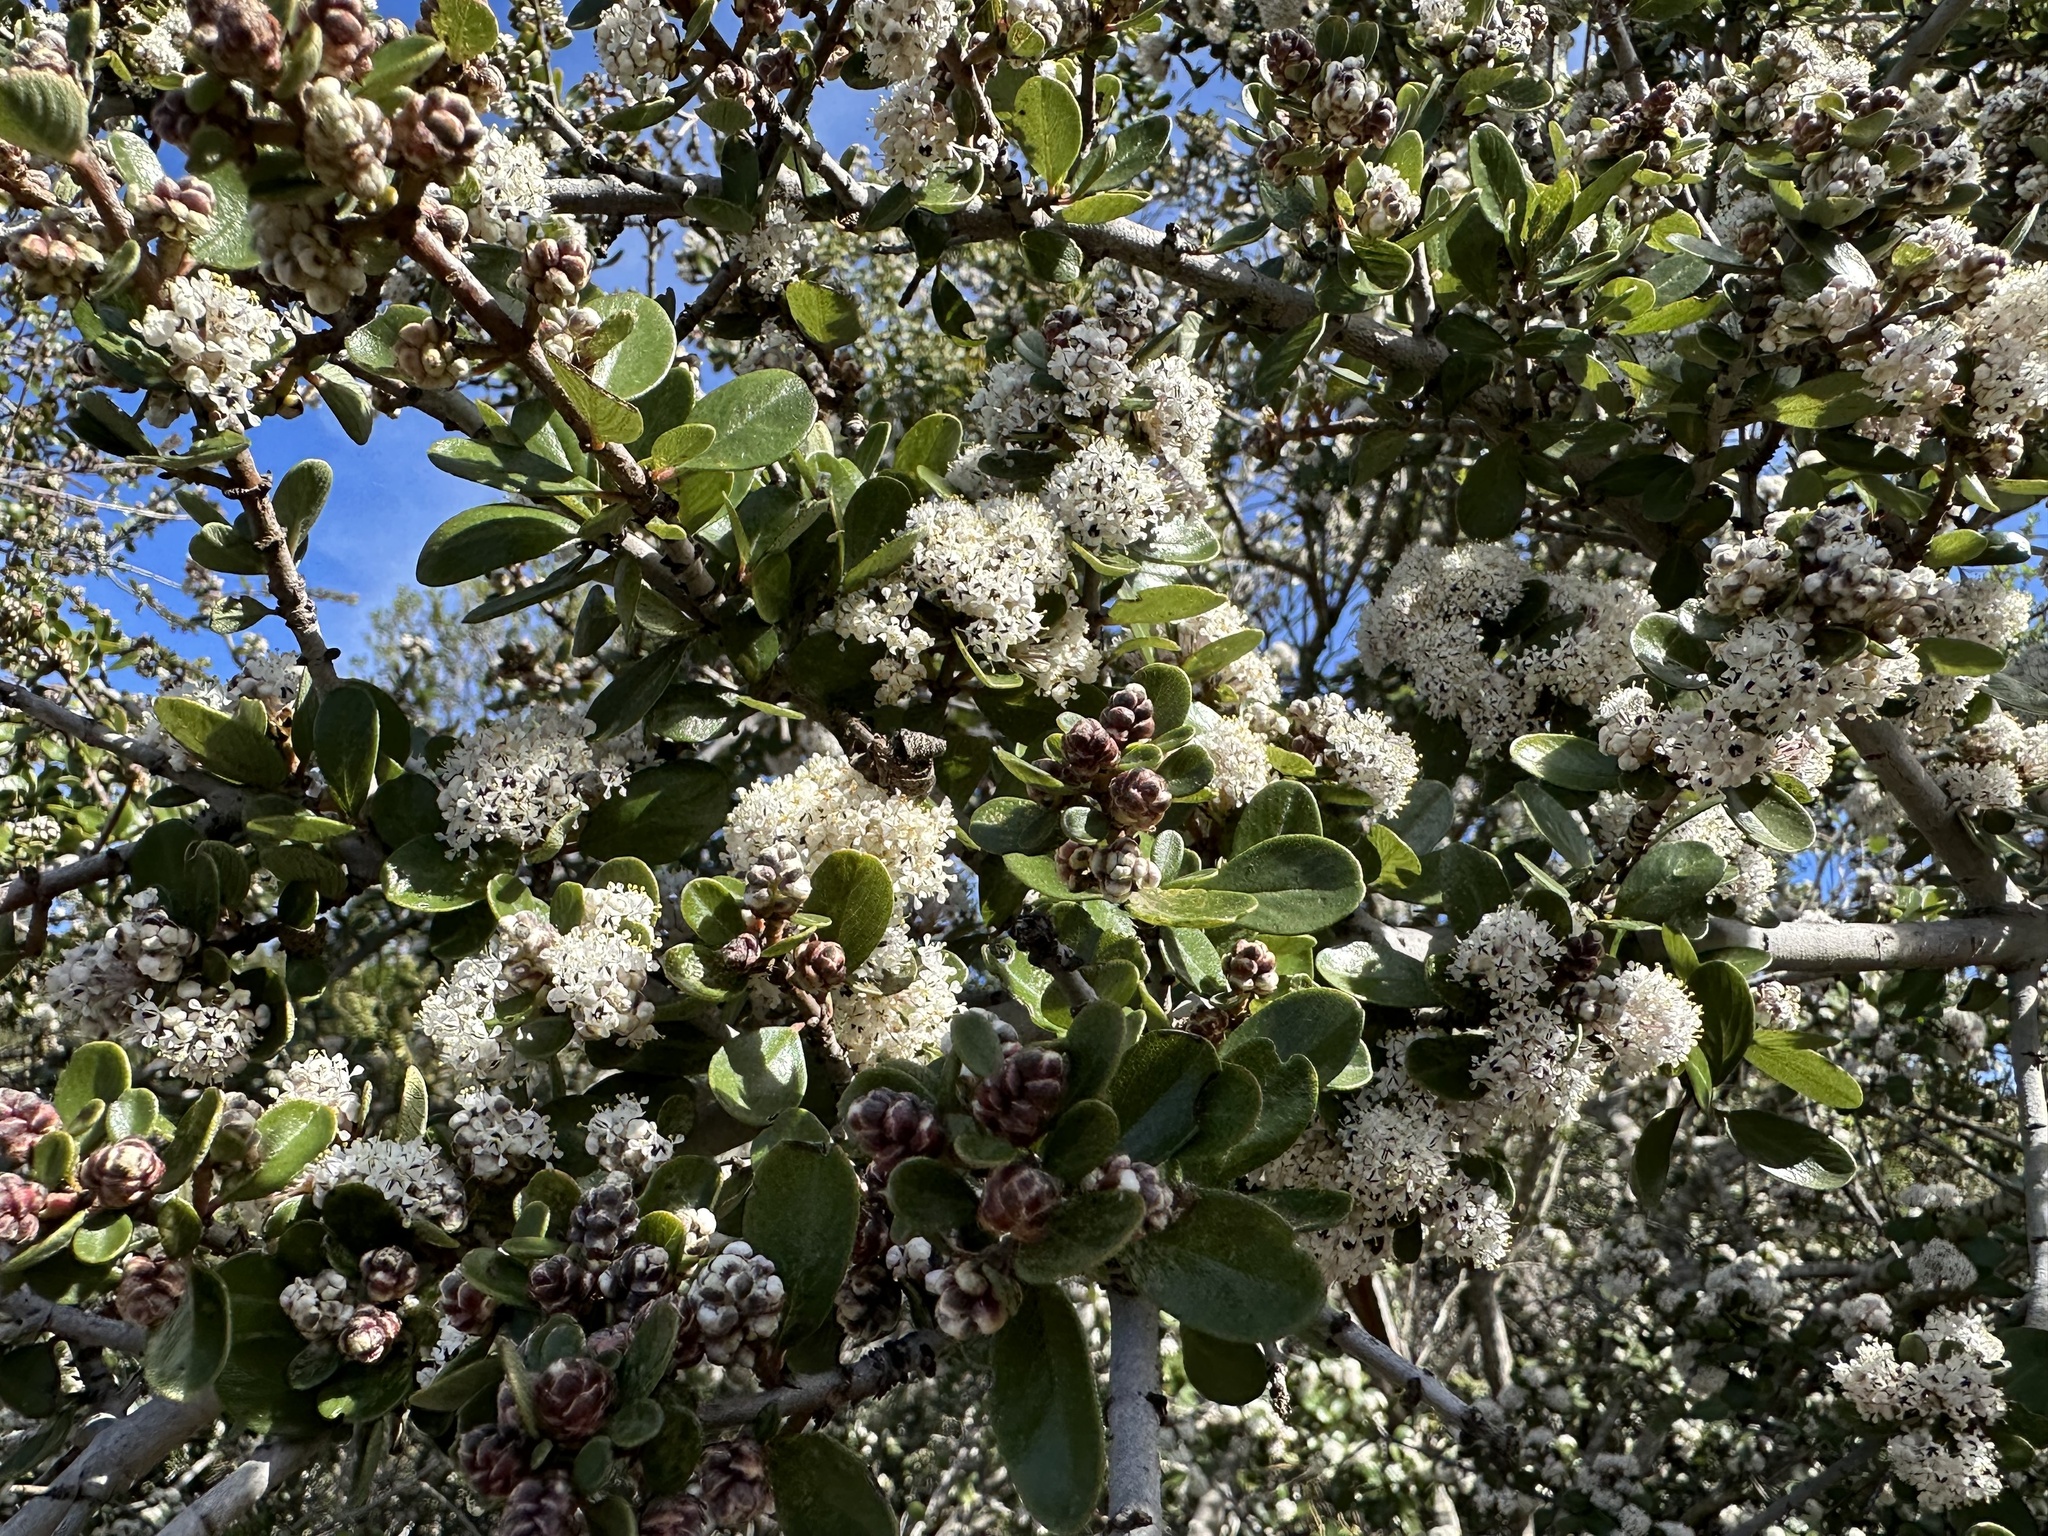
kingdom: Plantae
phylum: Tracheophyta
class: Magnoliopsida
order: Rosales
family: Rhamnaceae
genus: Ceanothus
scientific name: Ceanothus cuneatus
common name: Cuneate ceanothus
